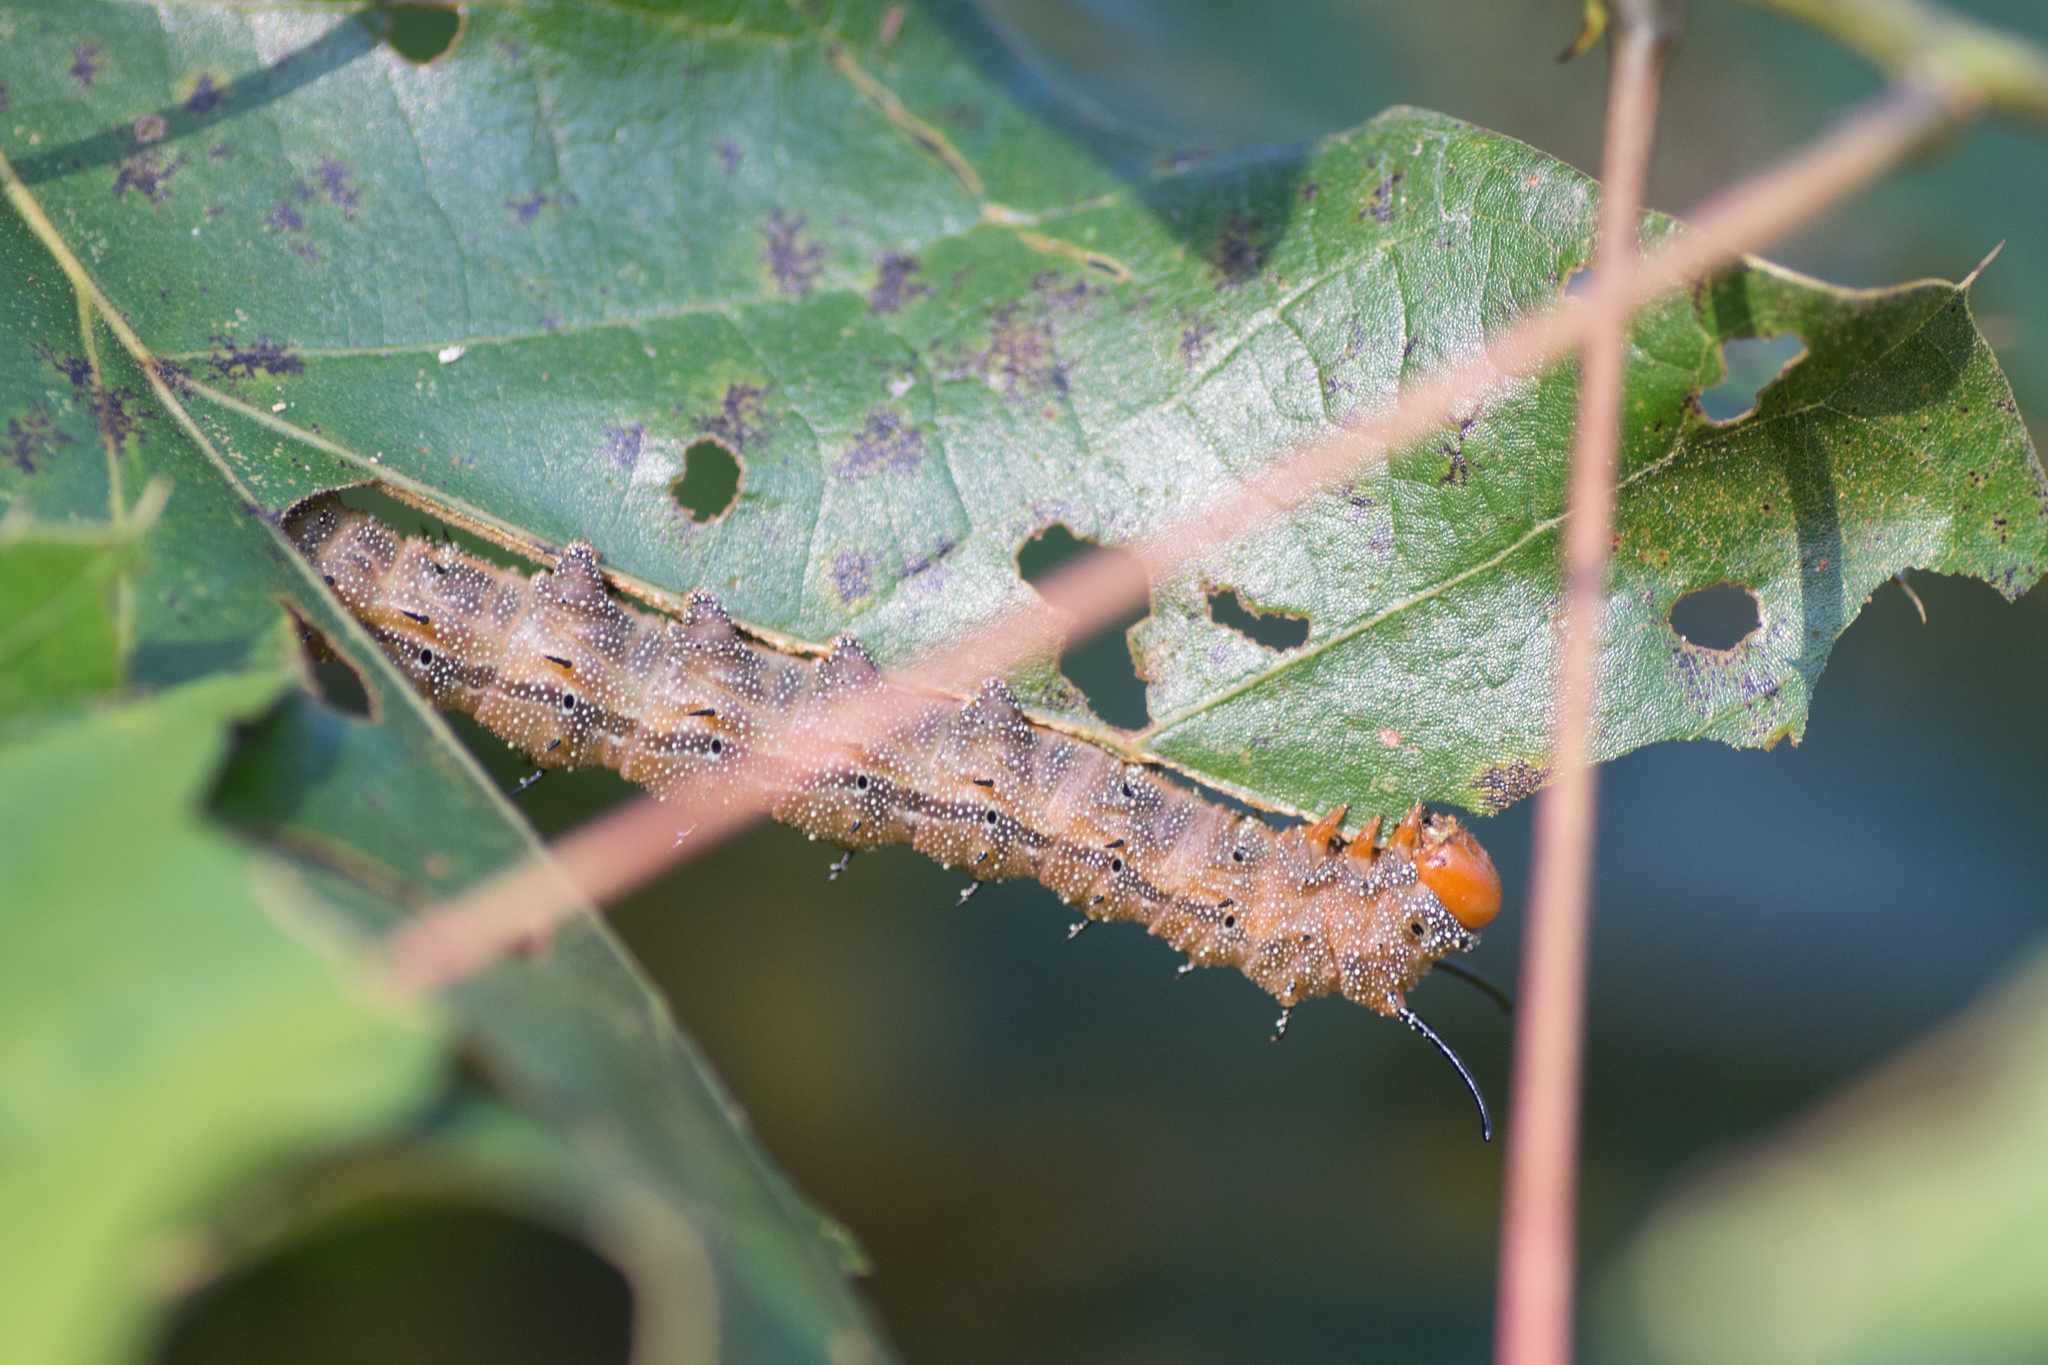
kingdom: Animalia
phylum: Arthropoda
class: Insecta
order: Lepidoptera
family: Saturniidae
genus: Anisota
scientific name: Anisota stigma
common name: Spiny oakworm moth
